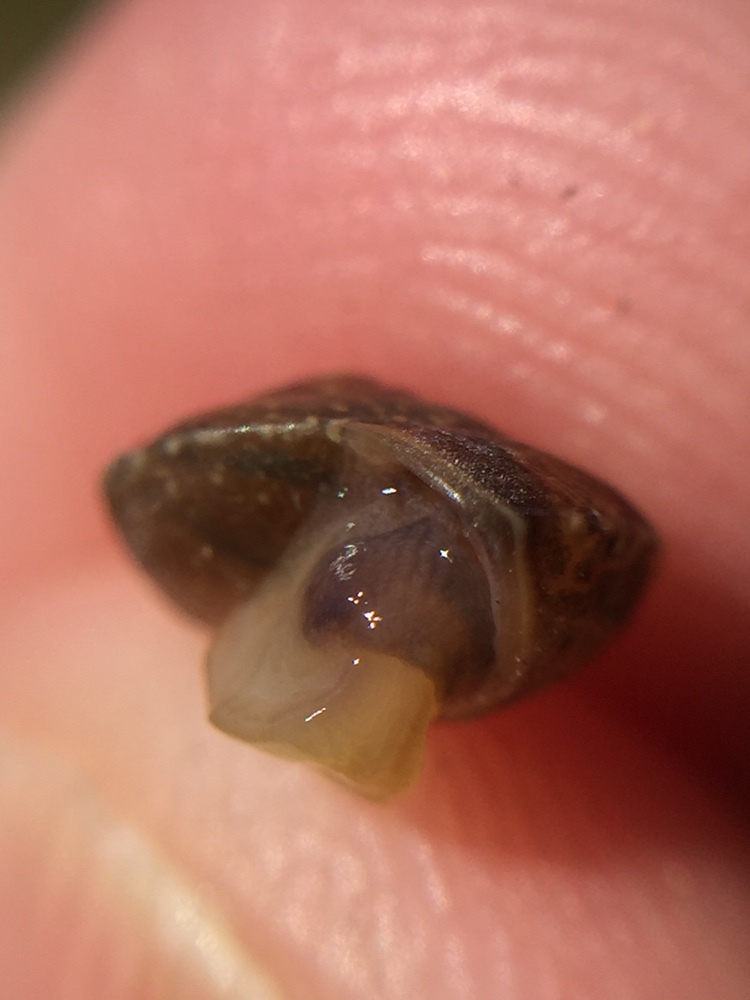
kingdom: Animalia
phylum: Mollusca
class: Gastropoda
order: Stylommatophora
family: Hygromiidae
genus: Hygromia
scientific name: Hygromia cinctella
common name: Girdled snail
